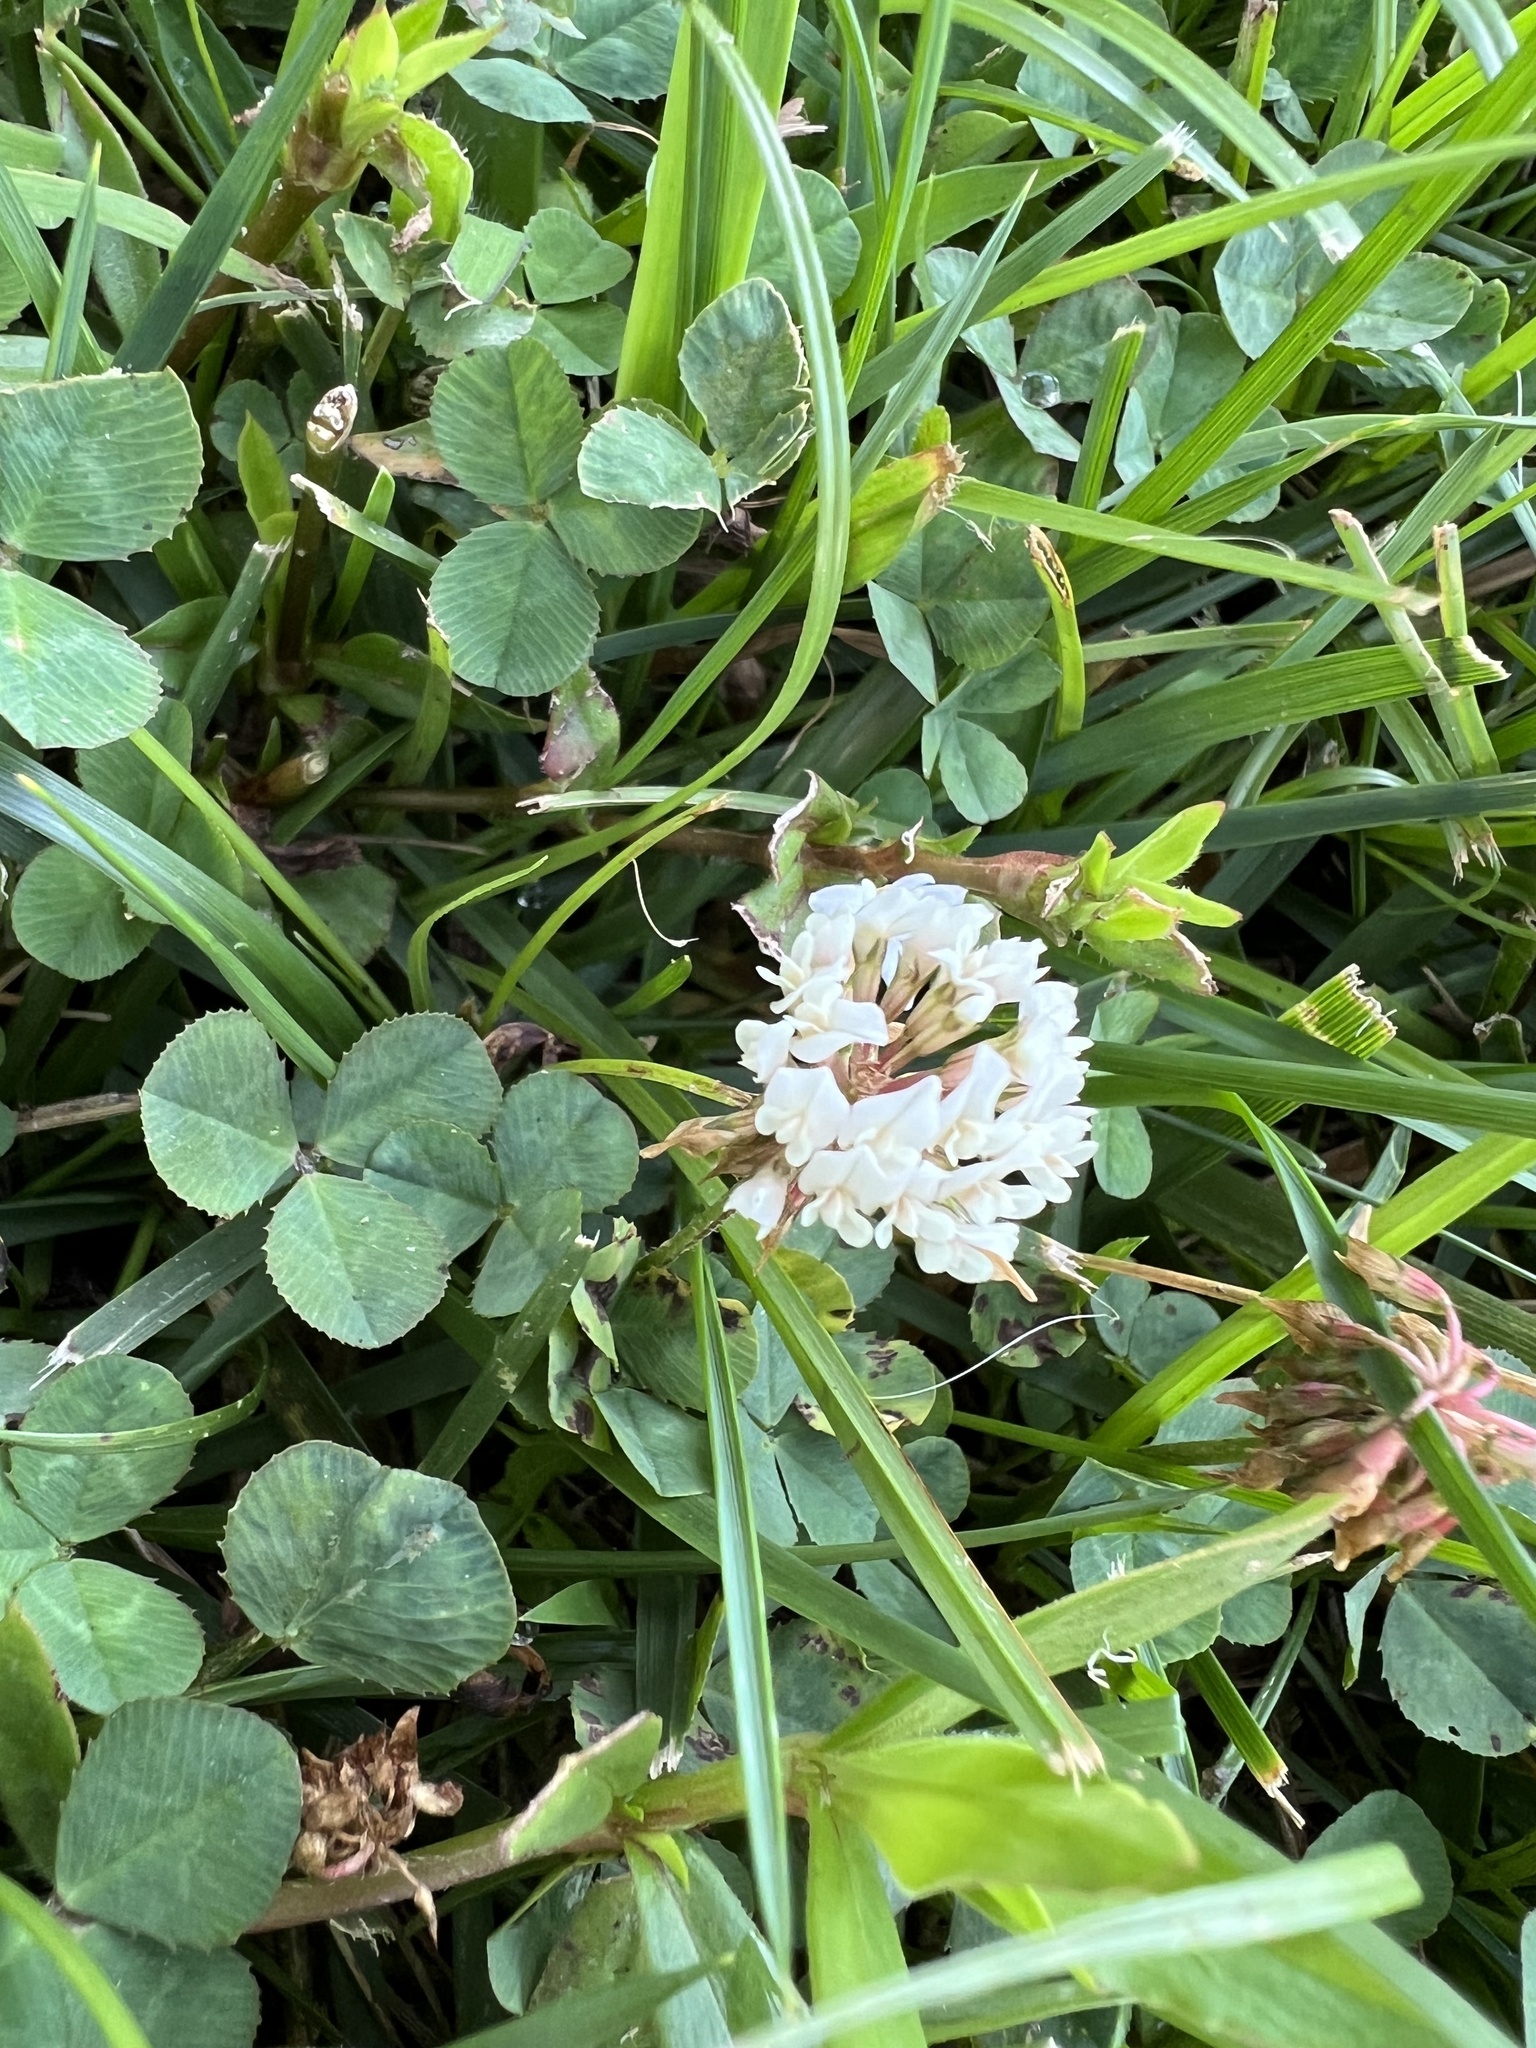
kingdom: Plantae
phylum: Tracheophyta
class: Magnoliopsida
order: Fabales
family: Fabaceae
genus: Trifolium
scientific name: Trifolium repens
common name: White clover
